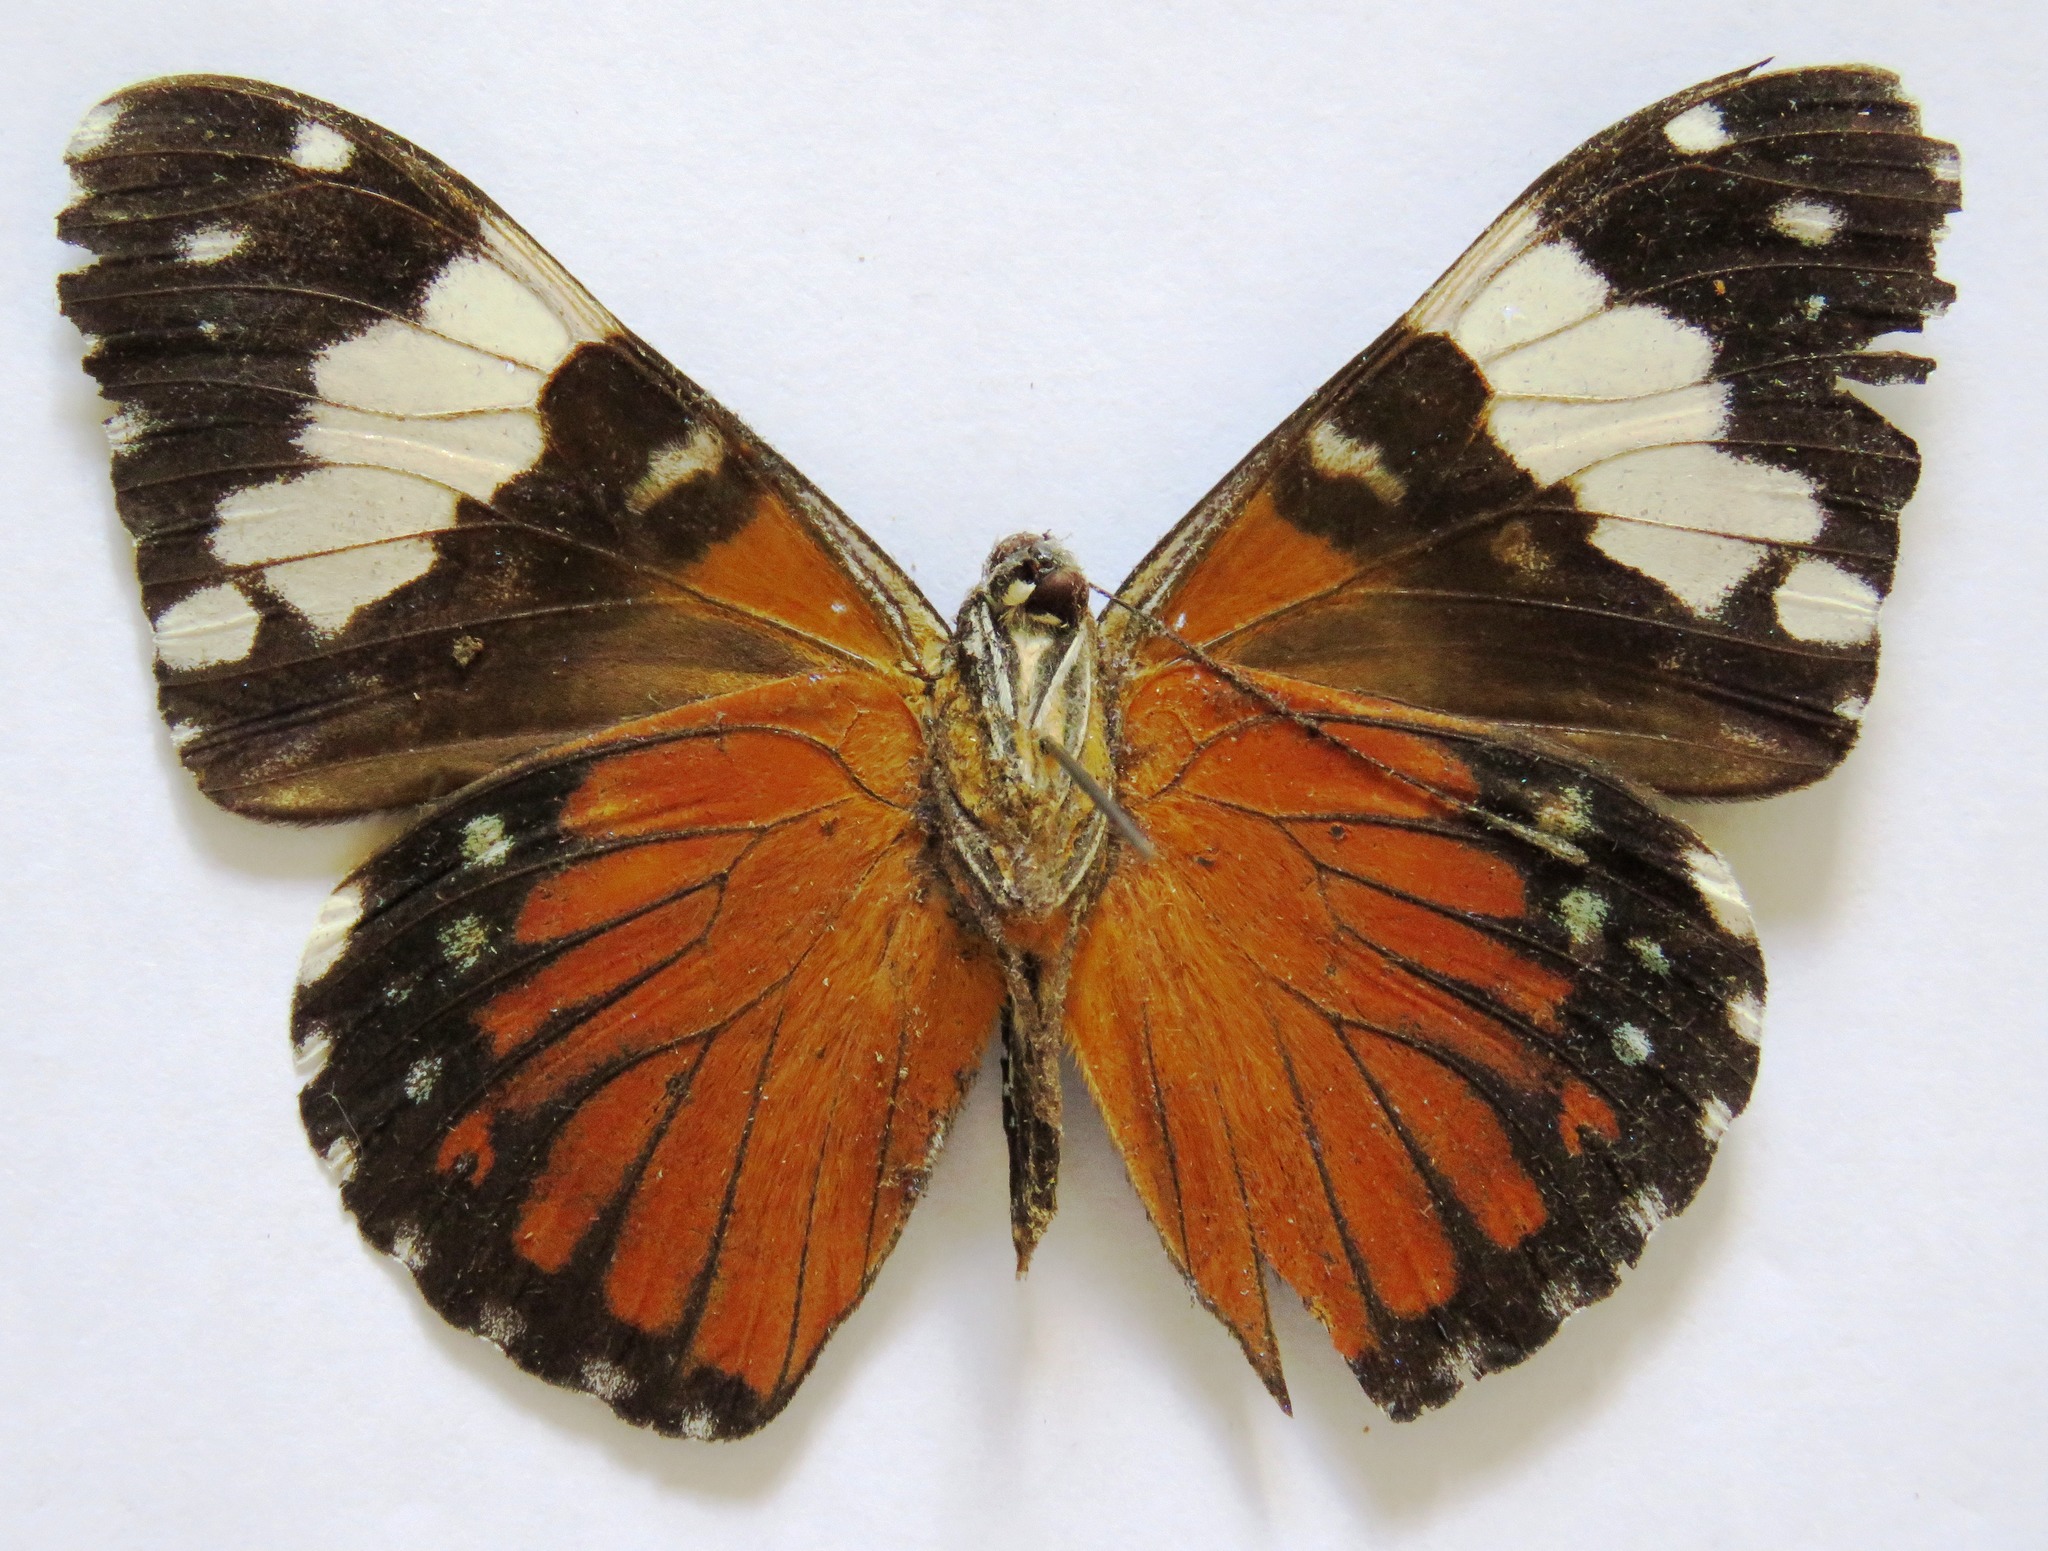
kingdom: Animalia
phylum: Arthropoda
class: Insecta
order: Lepidoptera
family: Nymphalidae
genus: Hamadryas
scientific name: Hamadryas amphinome
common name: Red cracker
